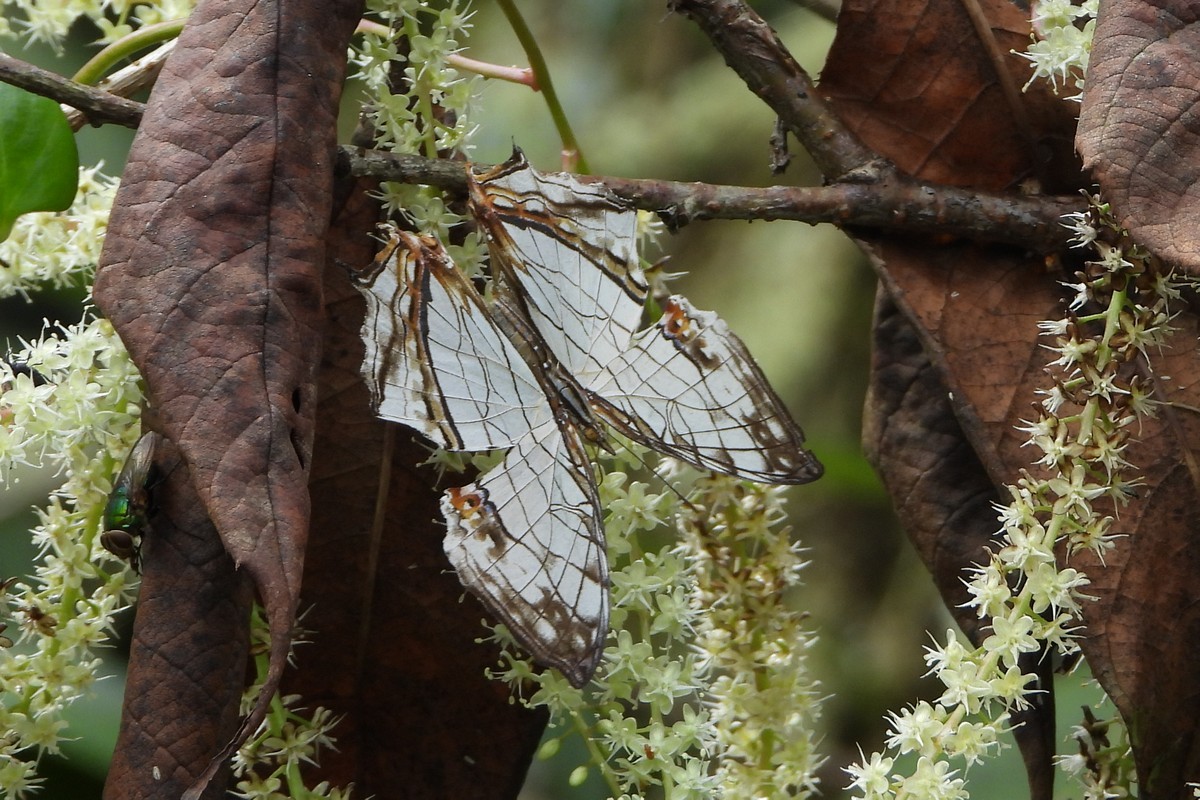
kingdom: Animalia
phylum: Arthropoda
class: Insecta
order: Lepidoptera
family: Nymphalidae
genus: Cyrestis
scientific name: Cyrestis thyodamas
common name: Common mapwing
